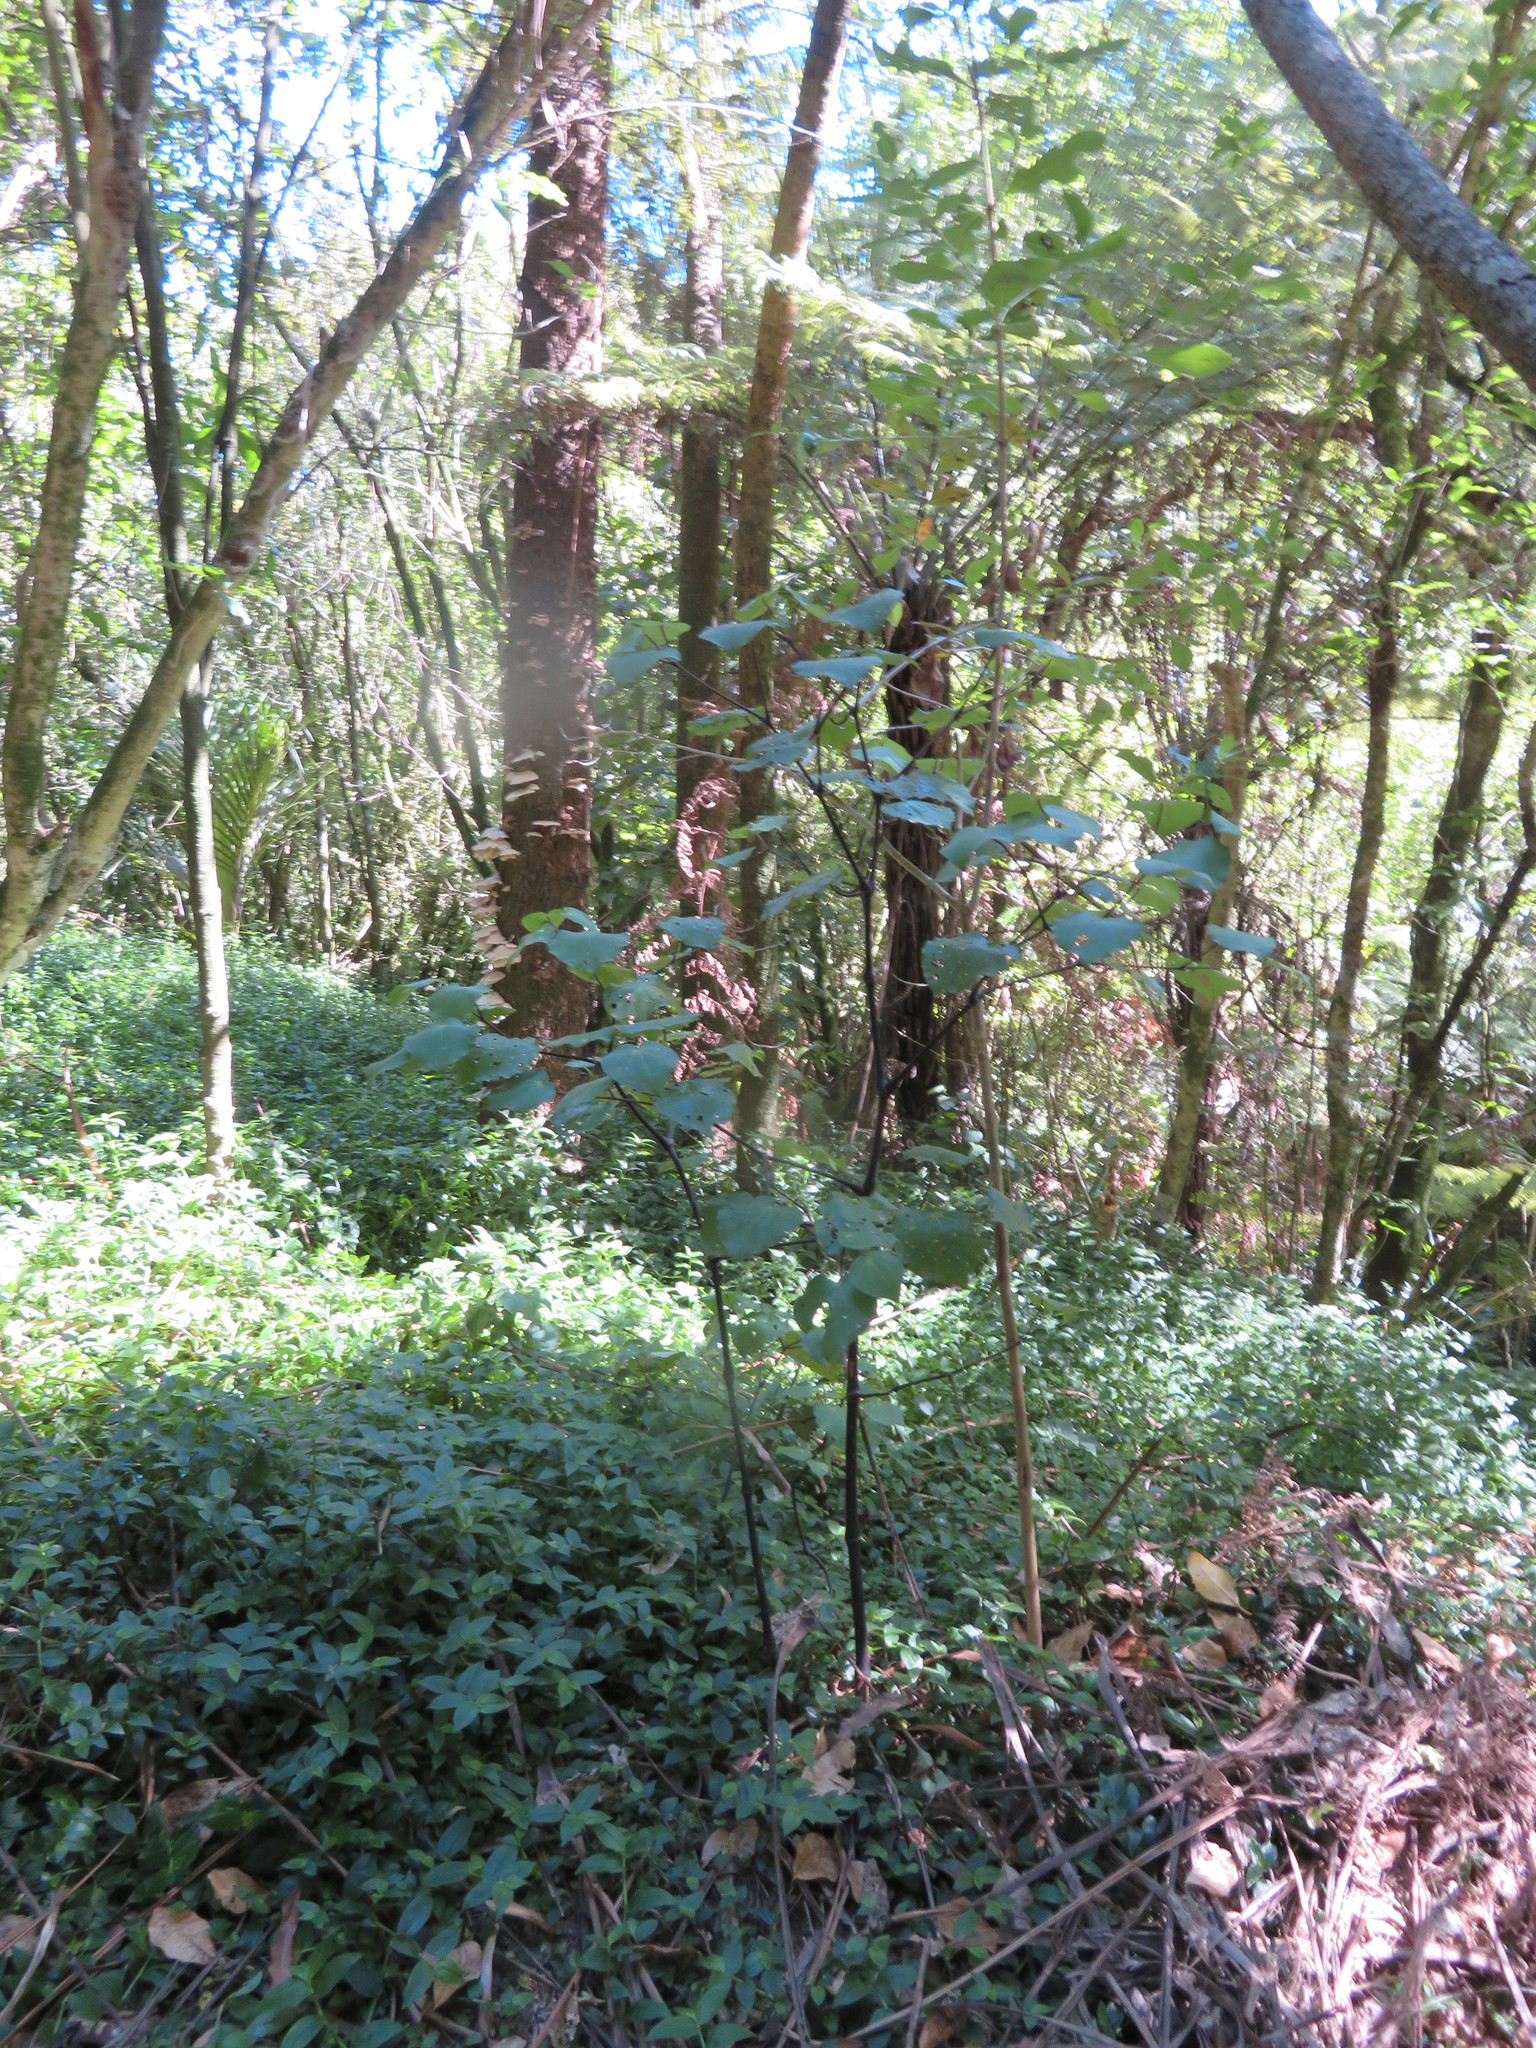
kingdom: Plantae
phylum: Tracheophyta
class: Magnoliopsida
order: Piperales
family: Piperaceae
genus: Macropiper
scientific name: Macropiper excelsum
